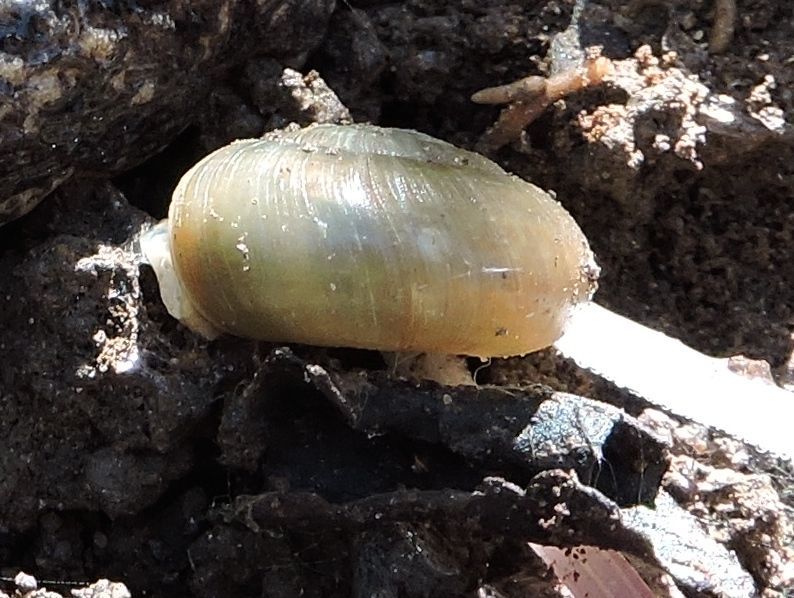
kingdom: Animalia
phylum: Mollusca
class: Gastropoda
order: Stylommatophora
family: Haplotrematidae
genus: Haplotrema
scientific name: Haplotrema concavum
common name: Gray-foot lancetooth
